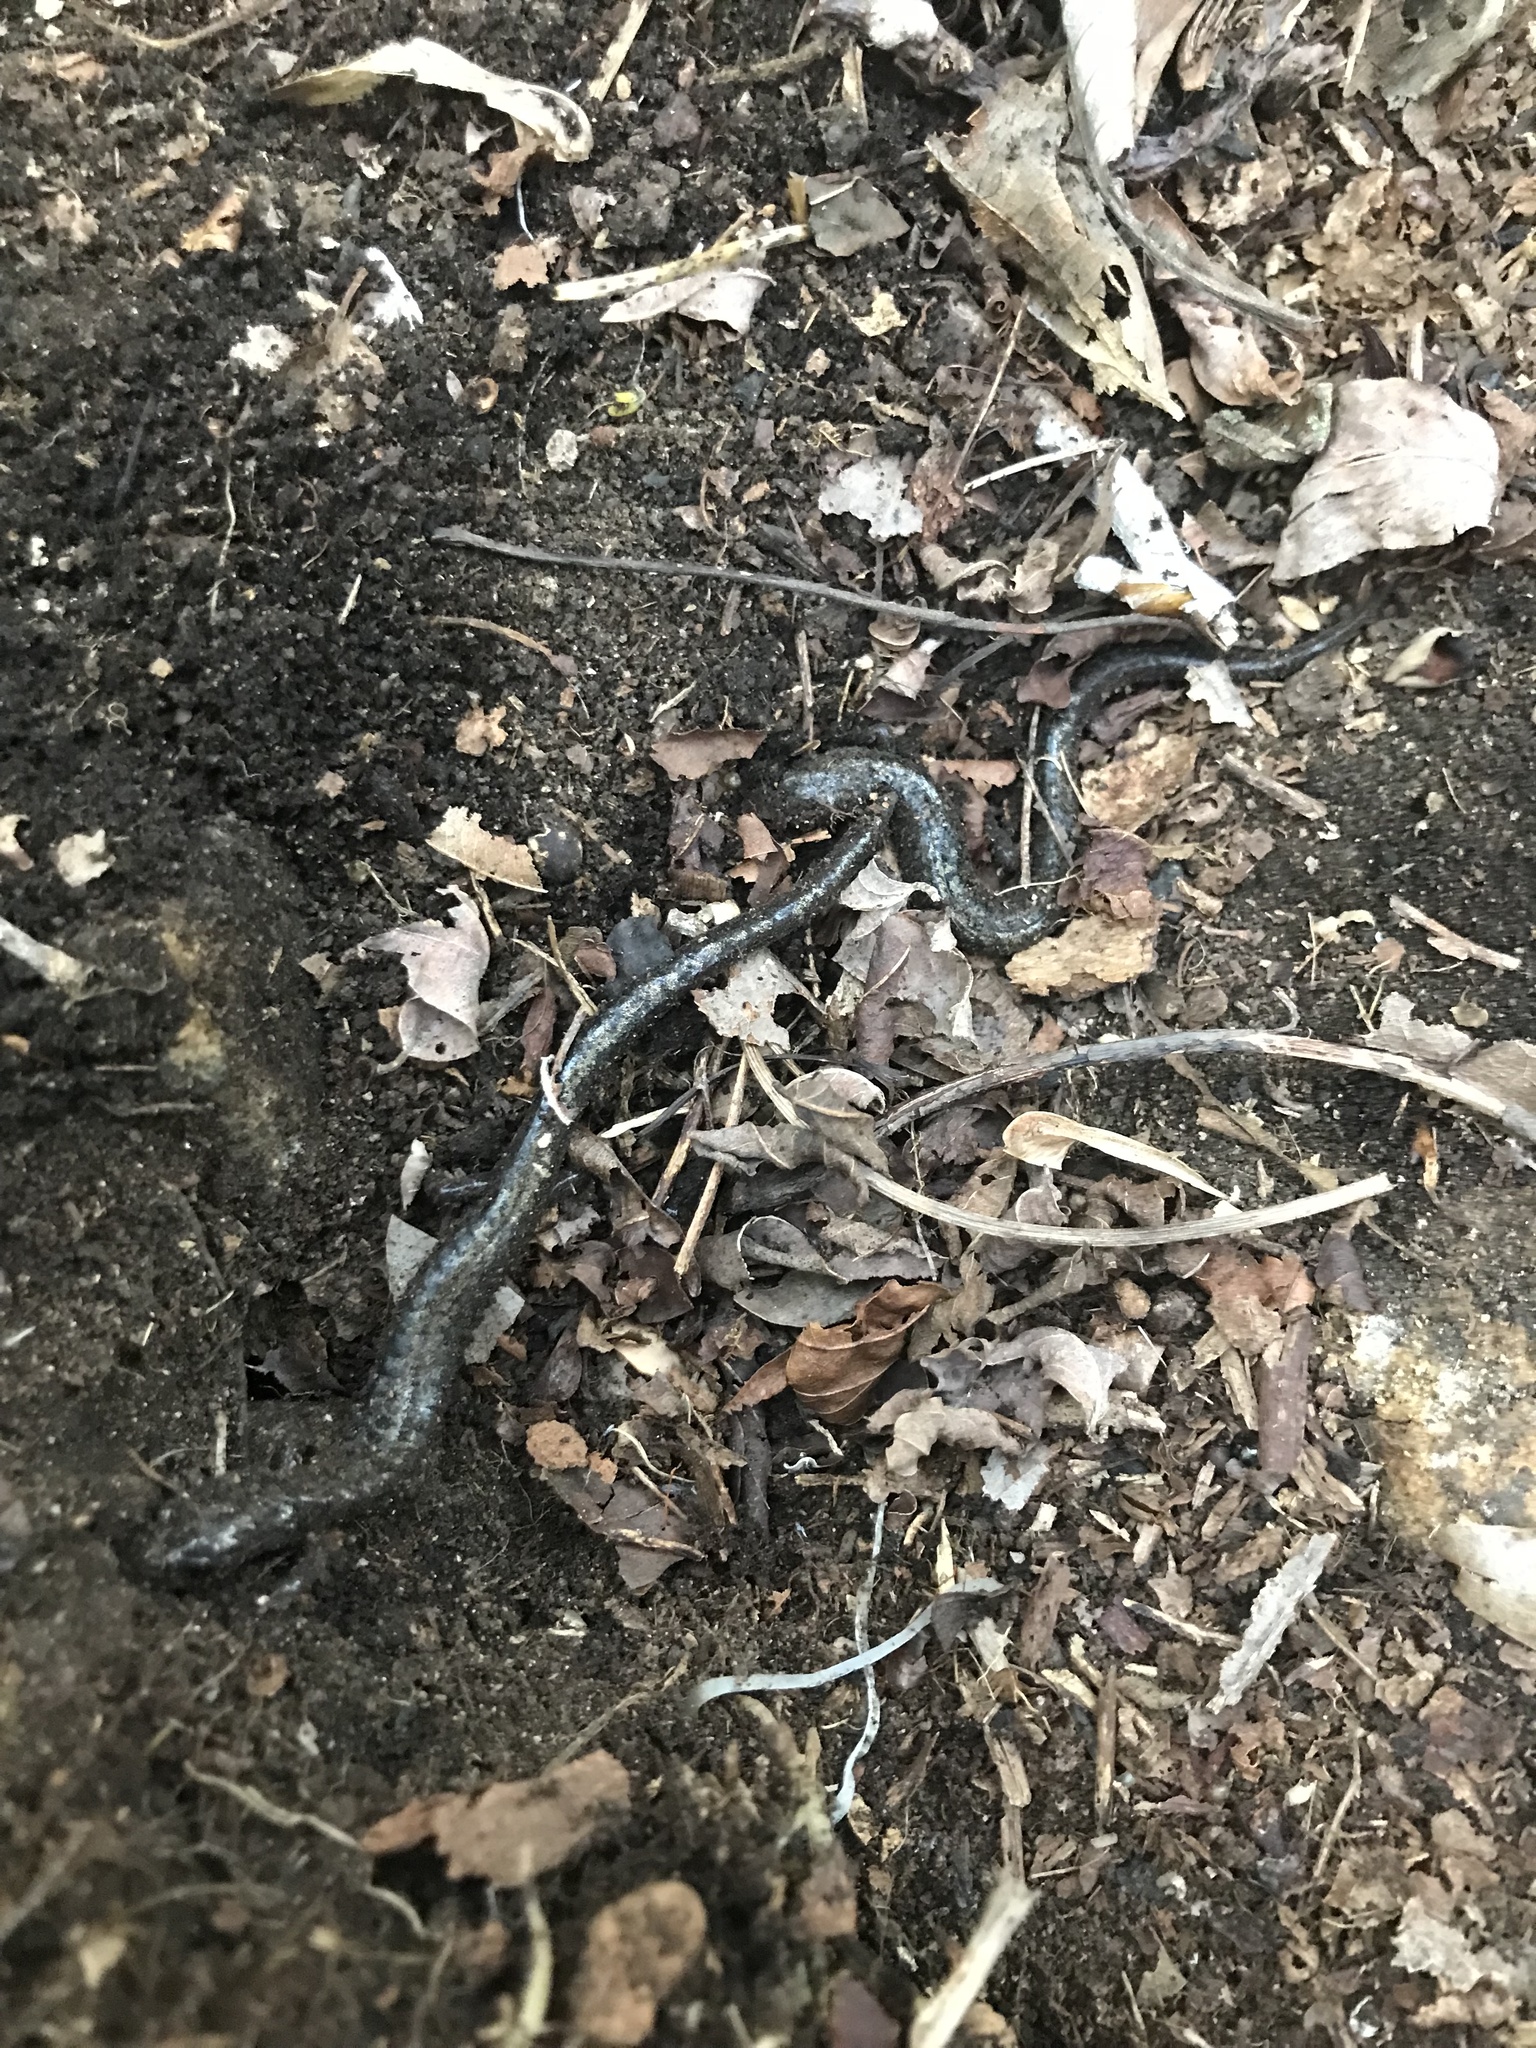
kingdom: Animalia
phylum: Chordata
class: Amphibia
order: Caudata
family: Plethodontidae
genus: Plethodon
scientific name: Plethodon hubrichti
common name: Peaks of otter salamander
